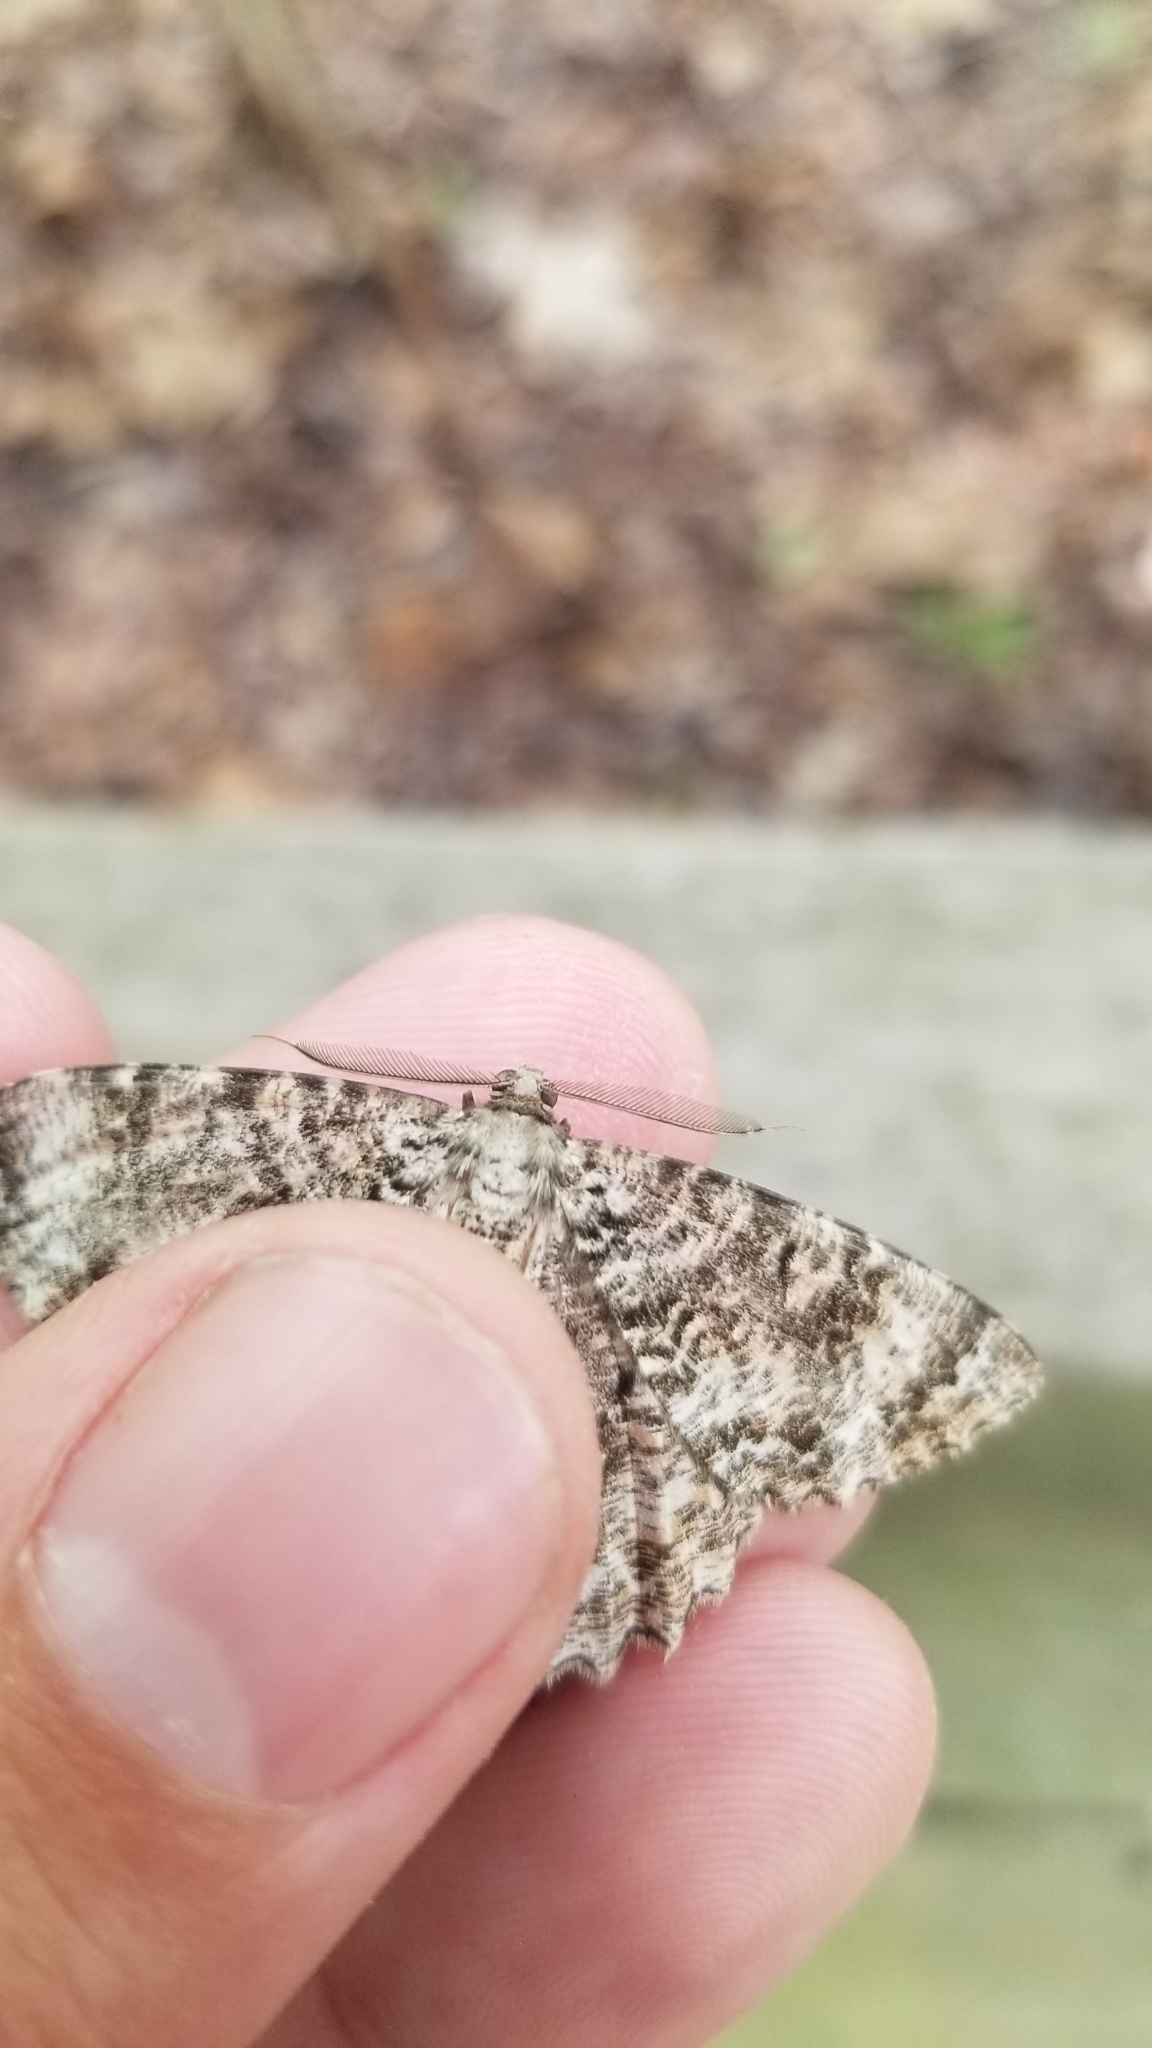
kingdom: Animalia
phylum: Arthropoda
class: Insecta
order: Lepidoptera
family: Geometridae
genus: Epimecis
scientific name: Epimecis hortaria
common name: Tulip-tree beauty
